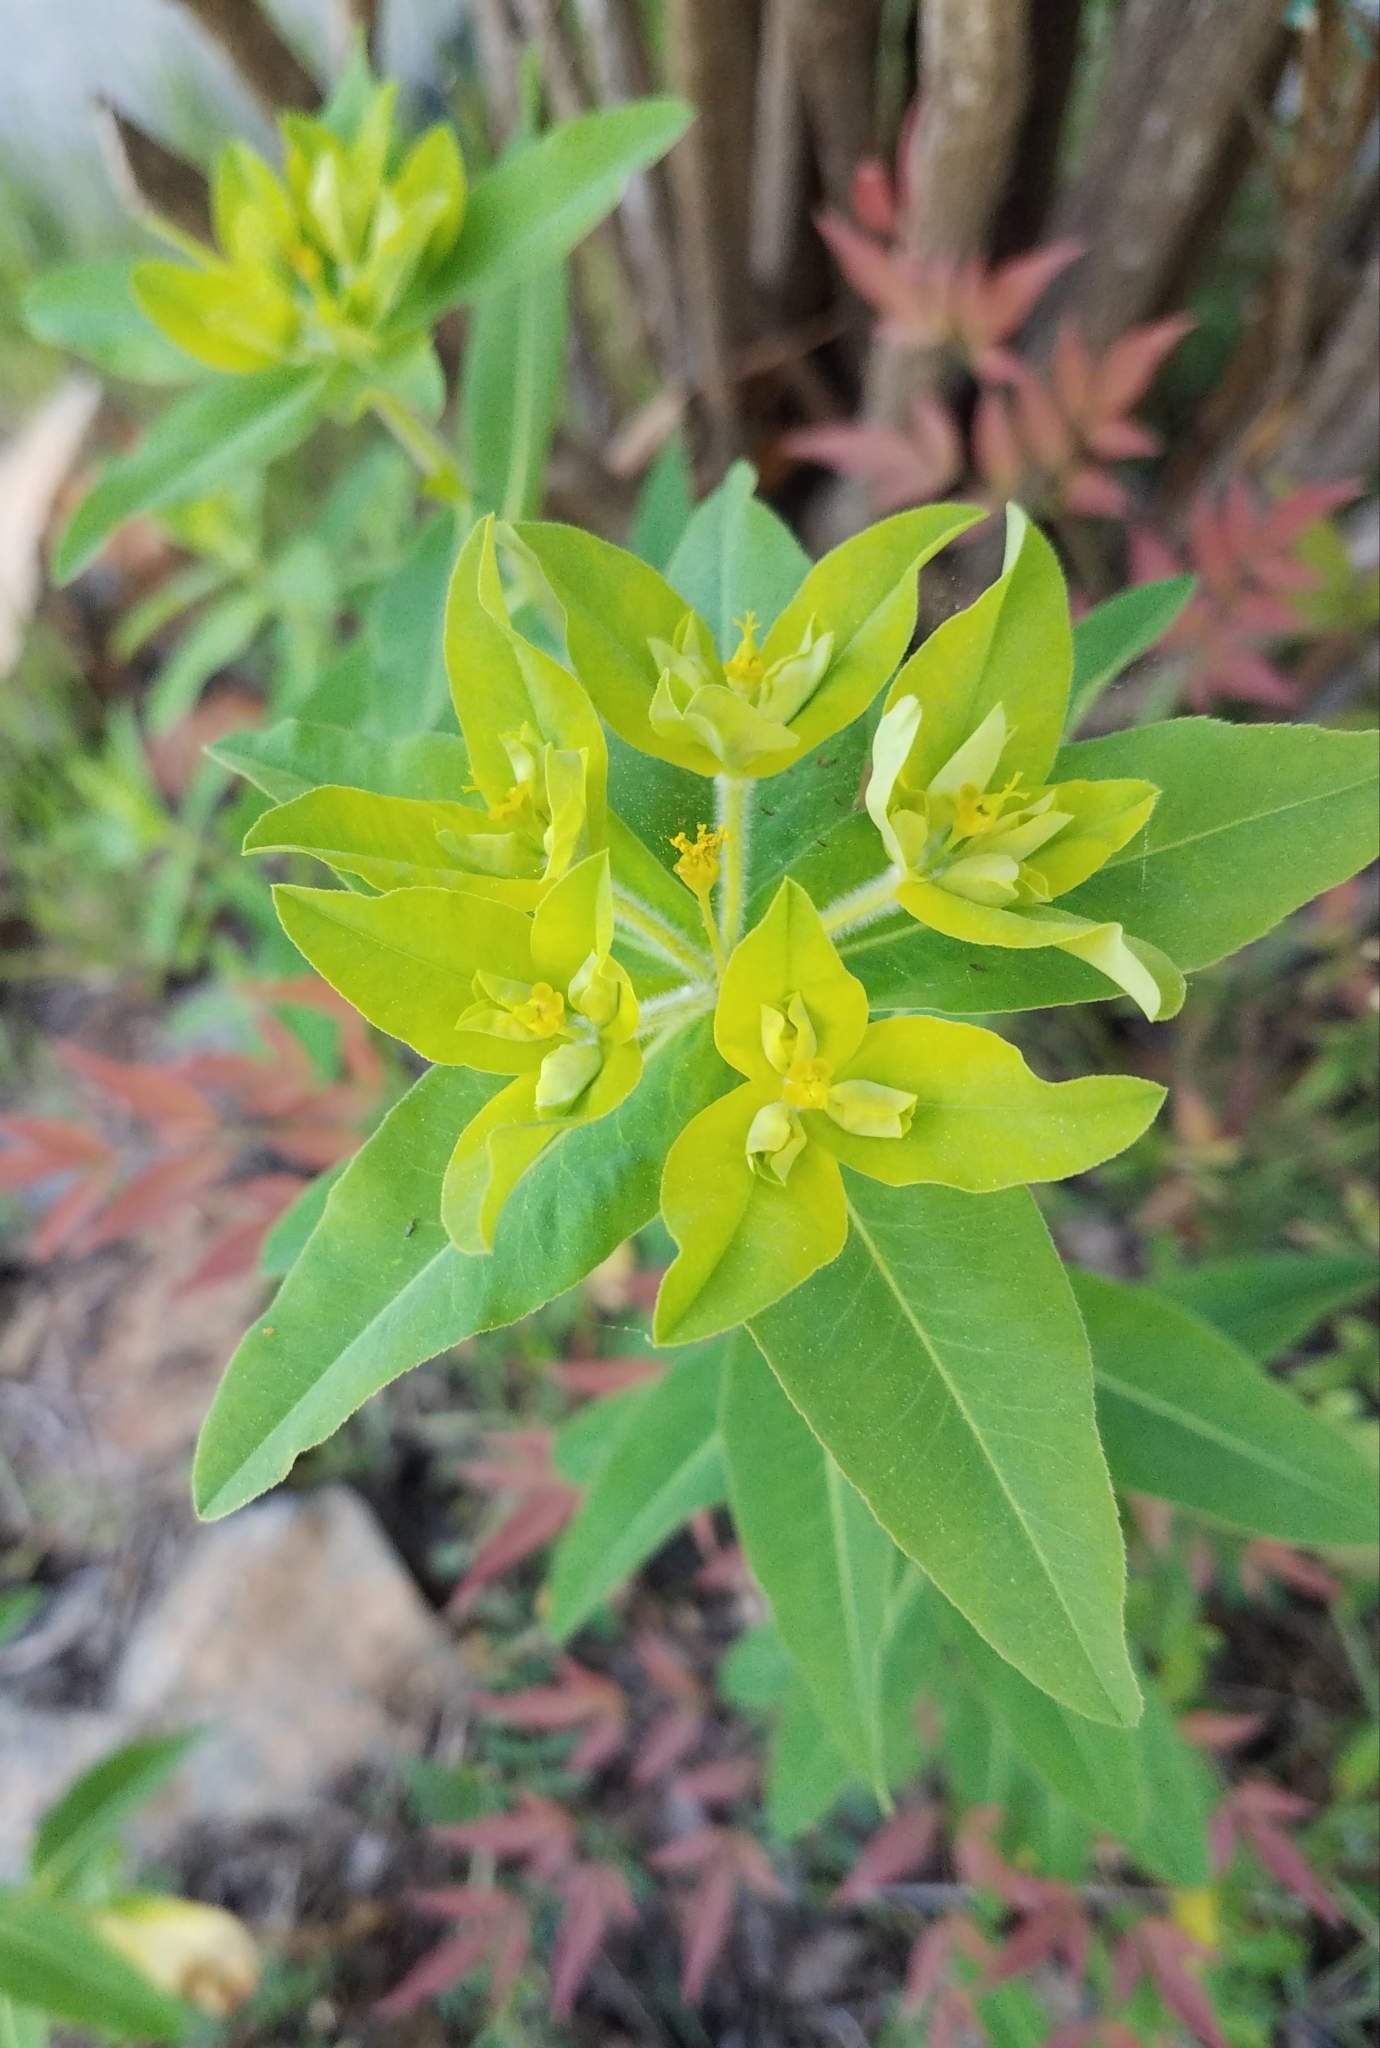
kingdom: Plantae
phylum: Tracheophyta
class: Magnoliopsida
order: Malpighiales
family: Euphorbiaceae
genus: Euphorbia
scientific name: Euphorbia oblongata
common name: Balkan spurge
